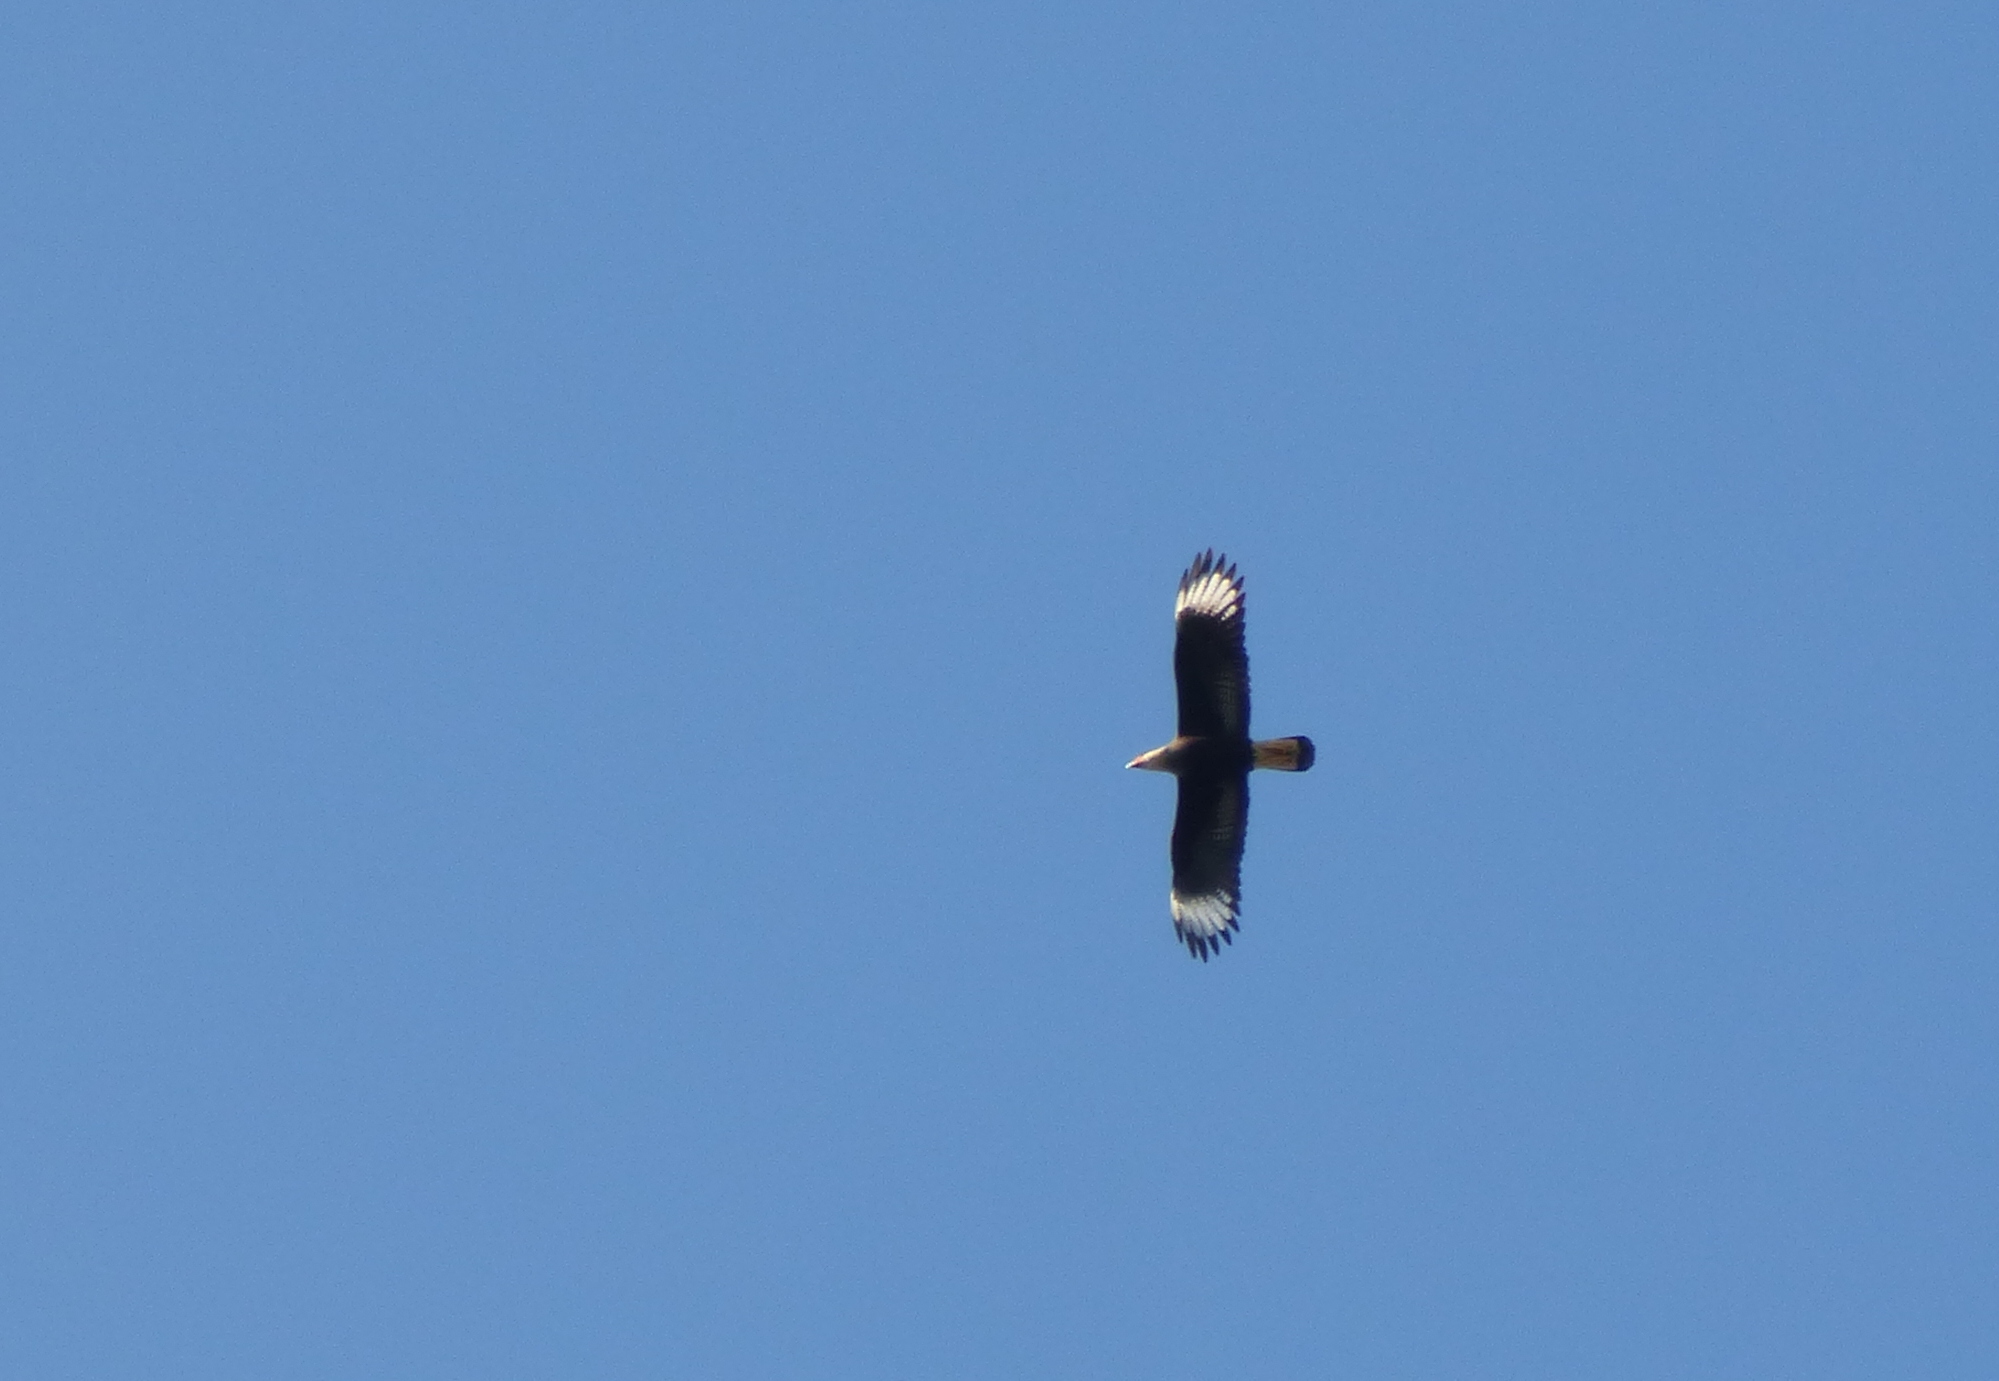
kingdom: Animalia
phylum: Chordata
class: Aves
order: Falconiformes
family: Falconidae
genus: Caracara
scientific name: Caracara plancus
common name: Southern caracara
